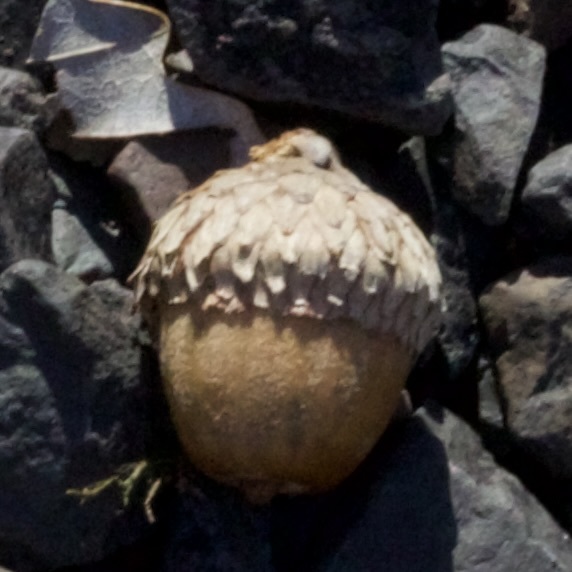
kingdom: Plantae
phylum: Tracheophyta
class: Magnoliopsida
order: Fagales
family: Fagaceae
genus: Quercus
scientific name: Quercus velutina
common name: Black oak
